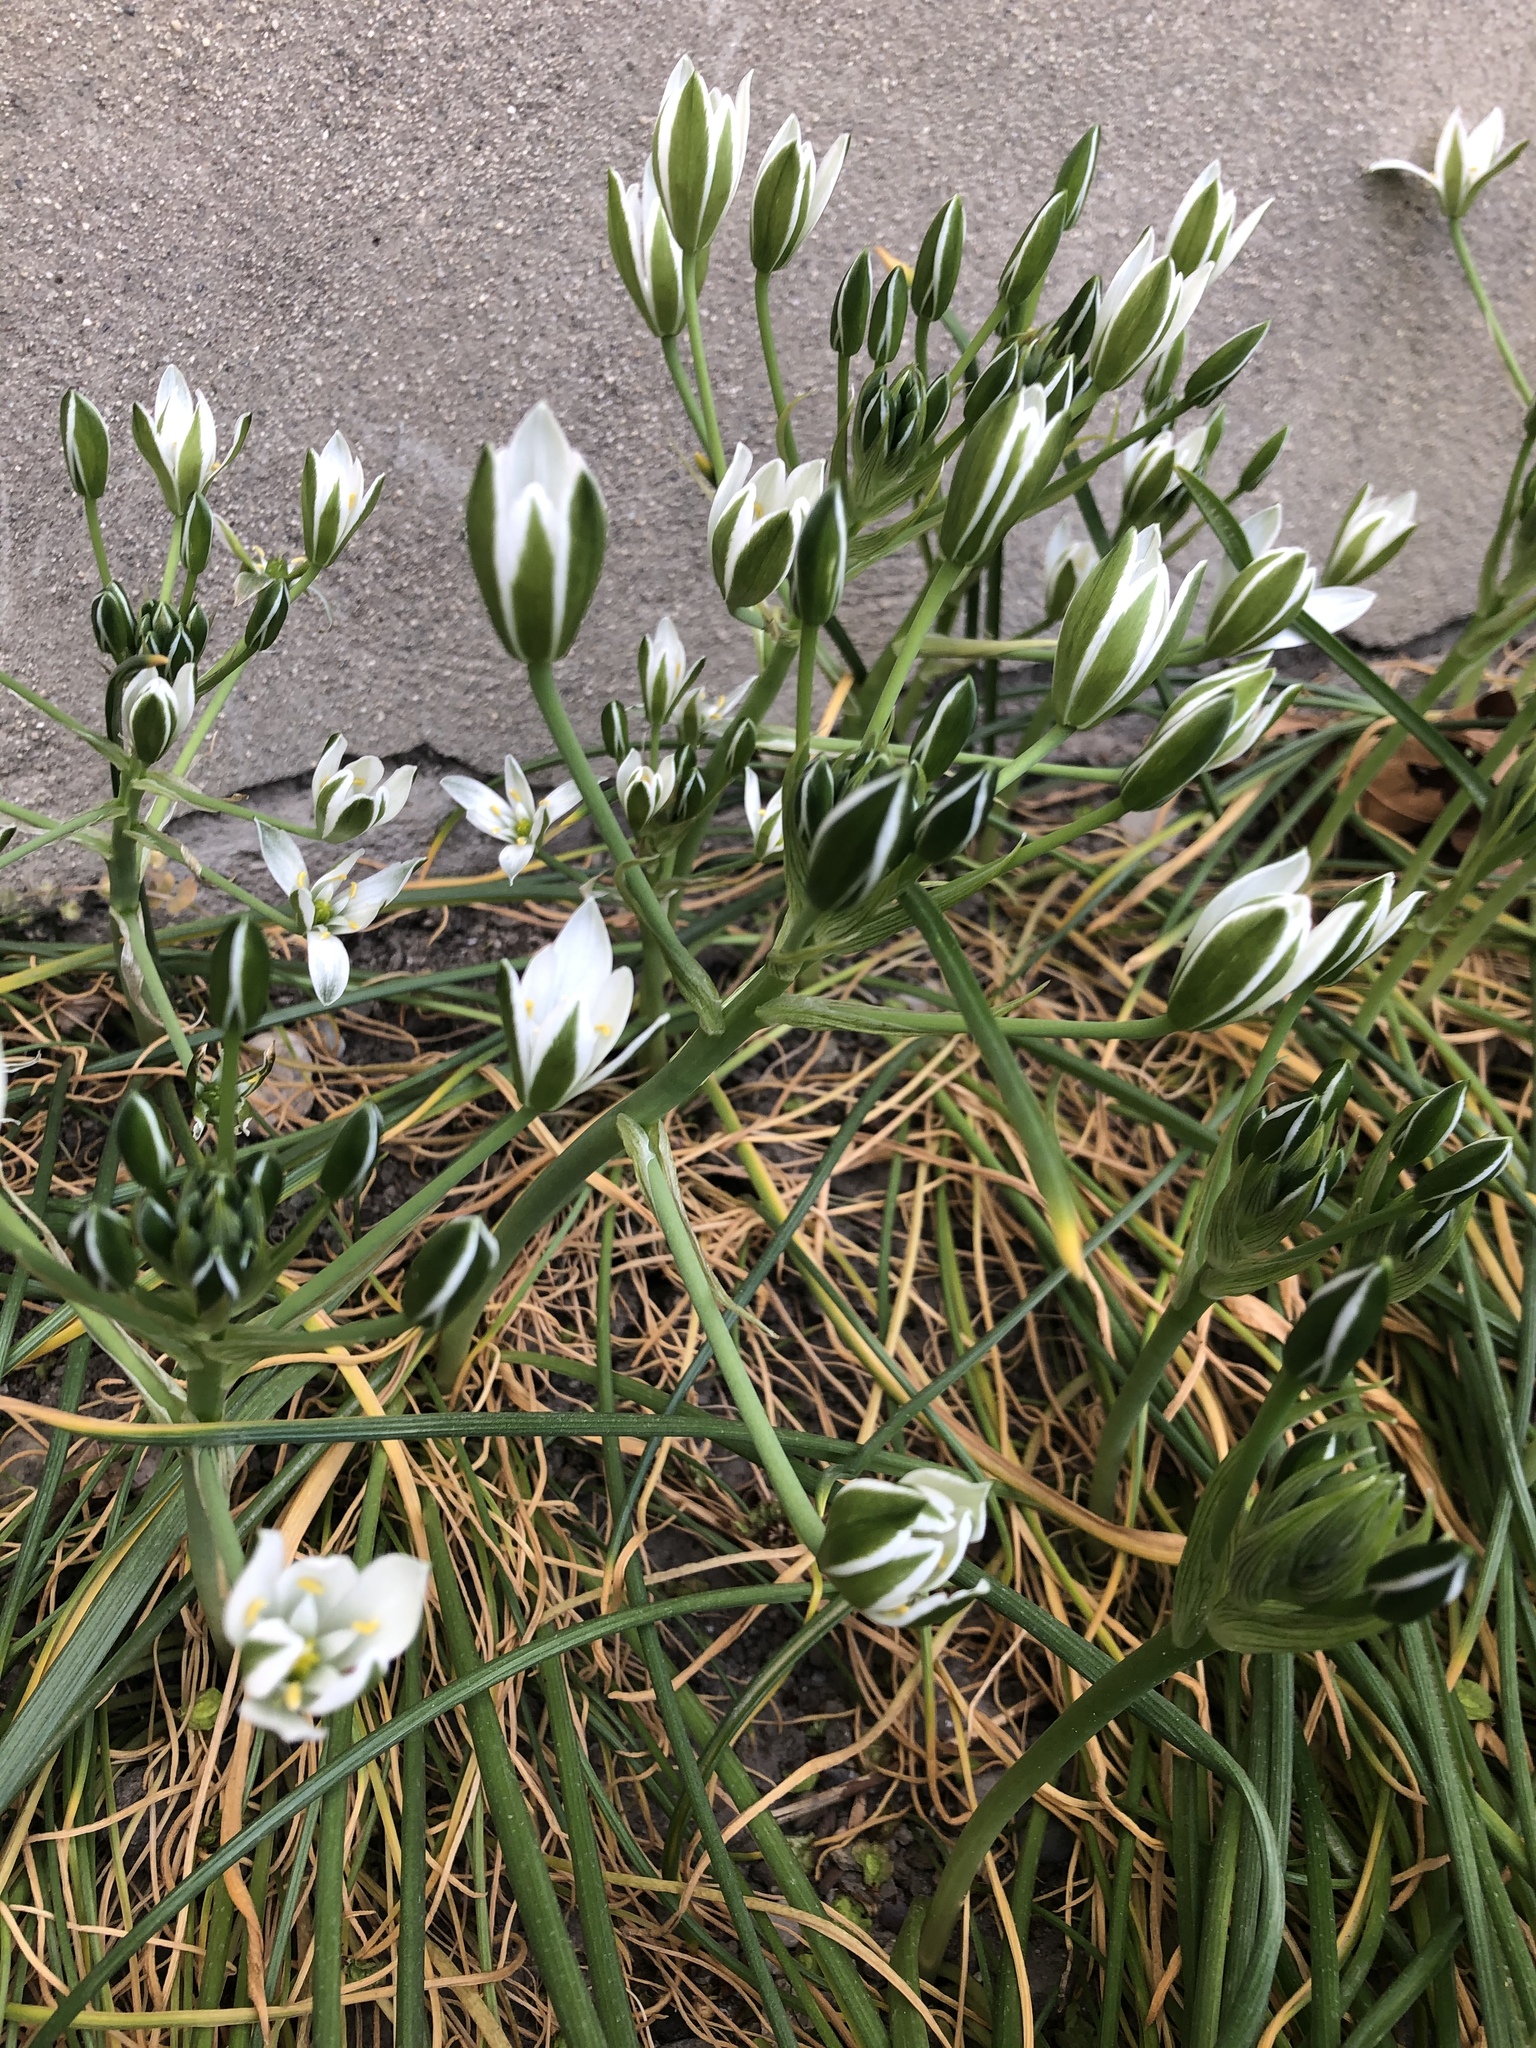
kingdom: Plantae
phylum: Tracheophyta
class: Liliopsida
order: Asparagales
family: Asparagaceae
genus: Ornithogalum
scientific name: Ornithogalum umbellatum
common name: Garden star-of-bethlehem
